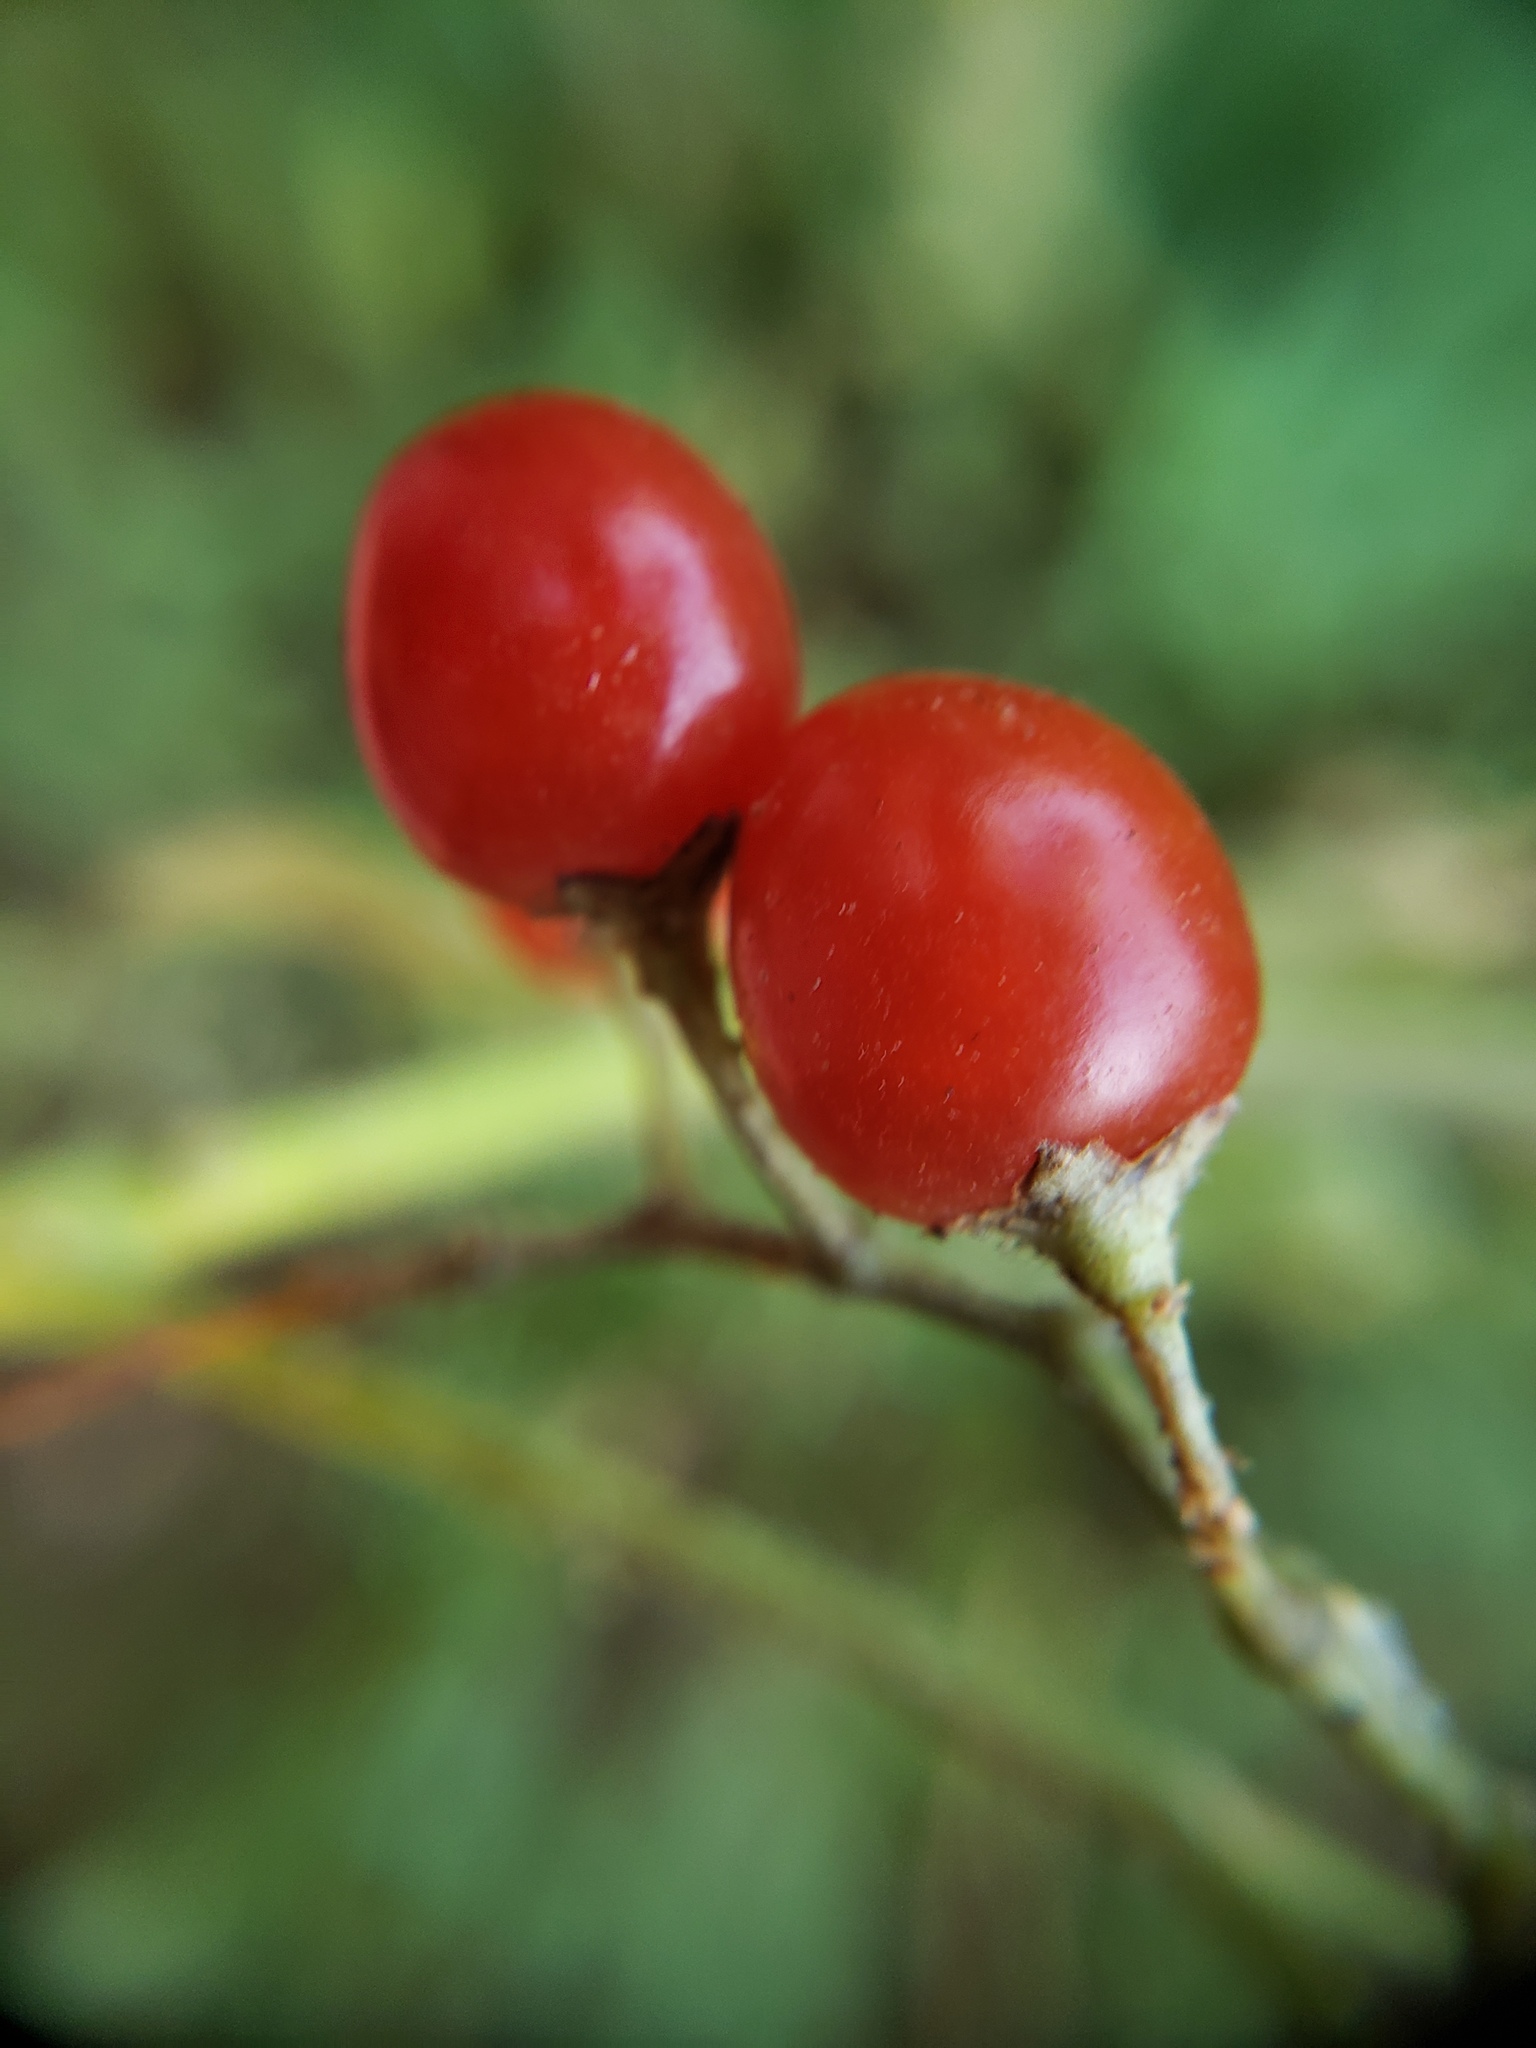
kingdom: Plantae
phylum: Tracheophyta
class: Magnoliopsida
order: Solanales
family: Solanaceae
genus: Solanum
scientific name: Solanum dulcamara
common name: Climbing nightshade
